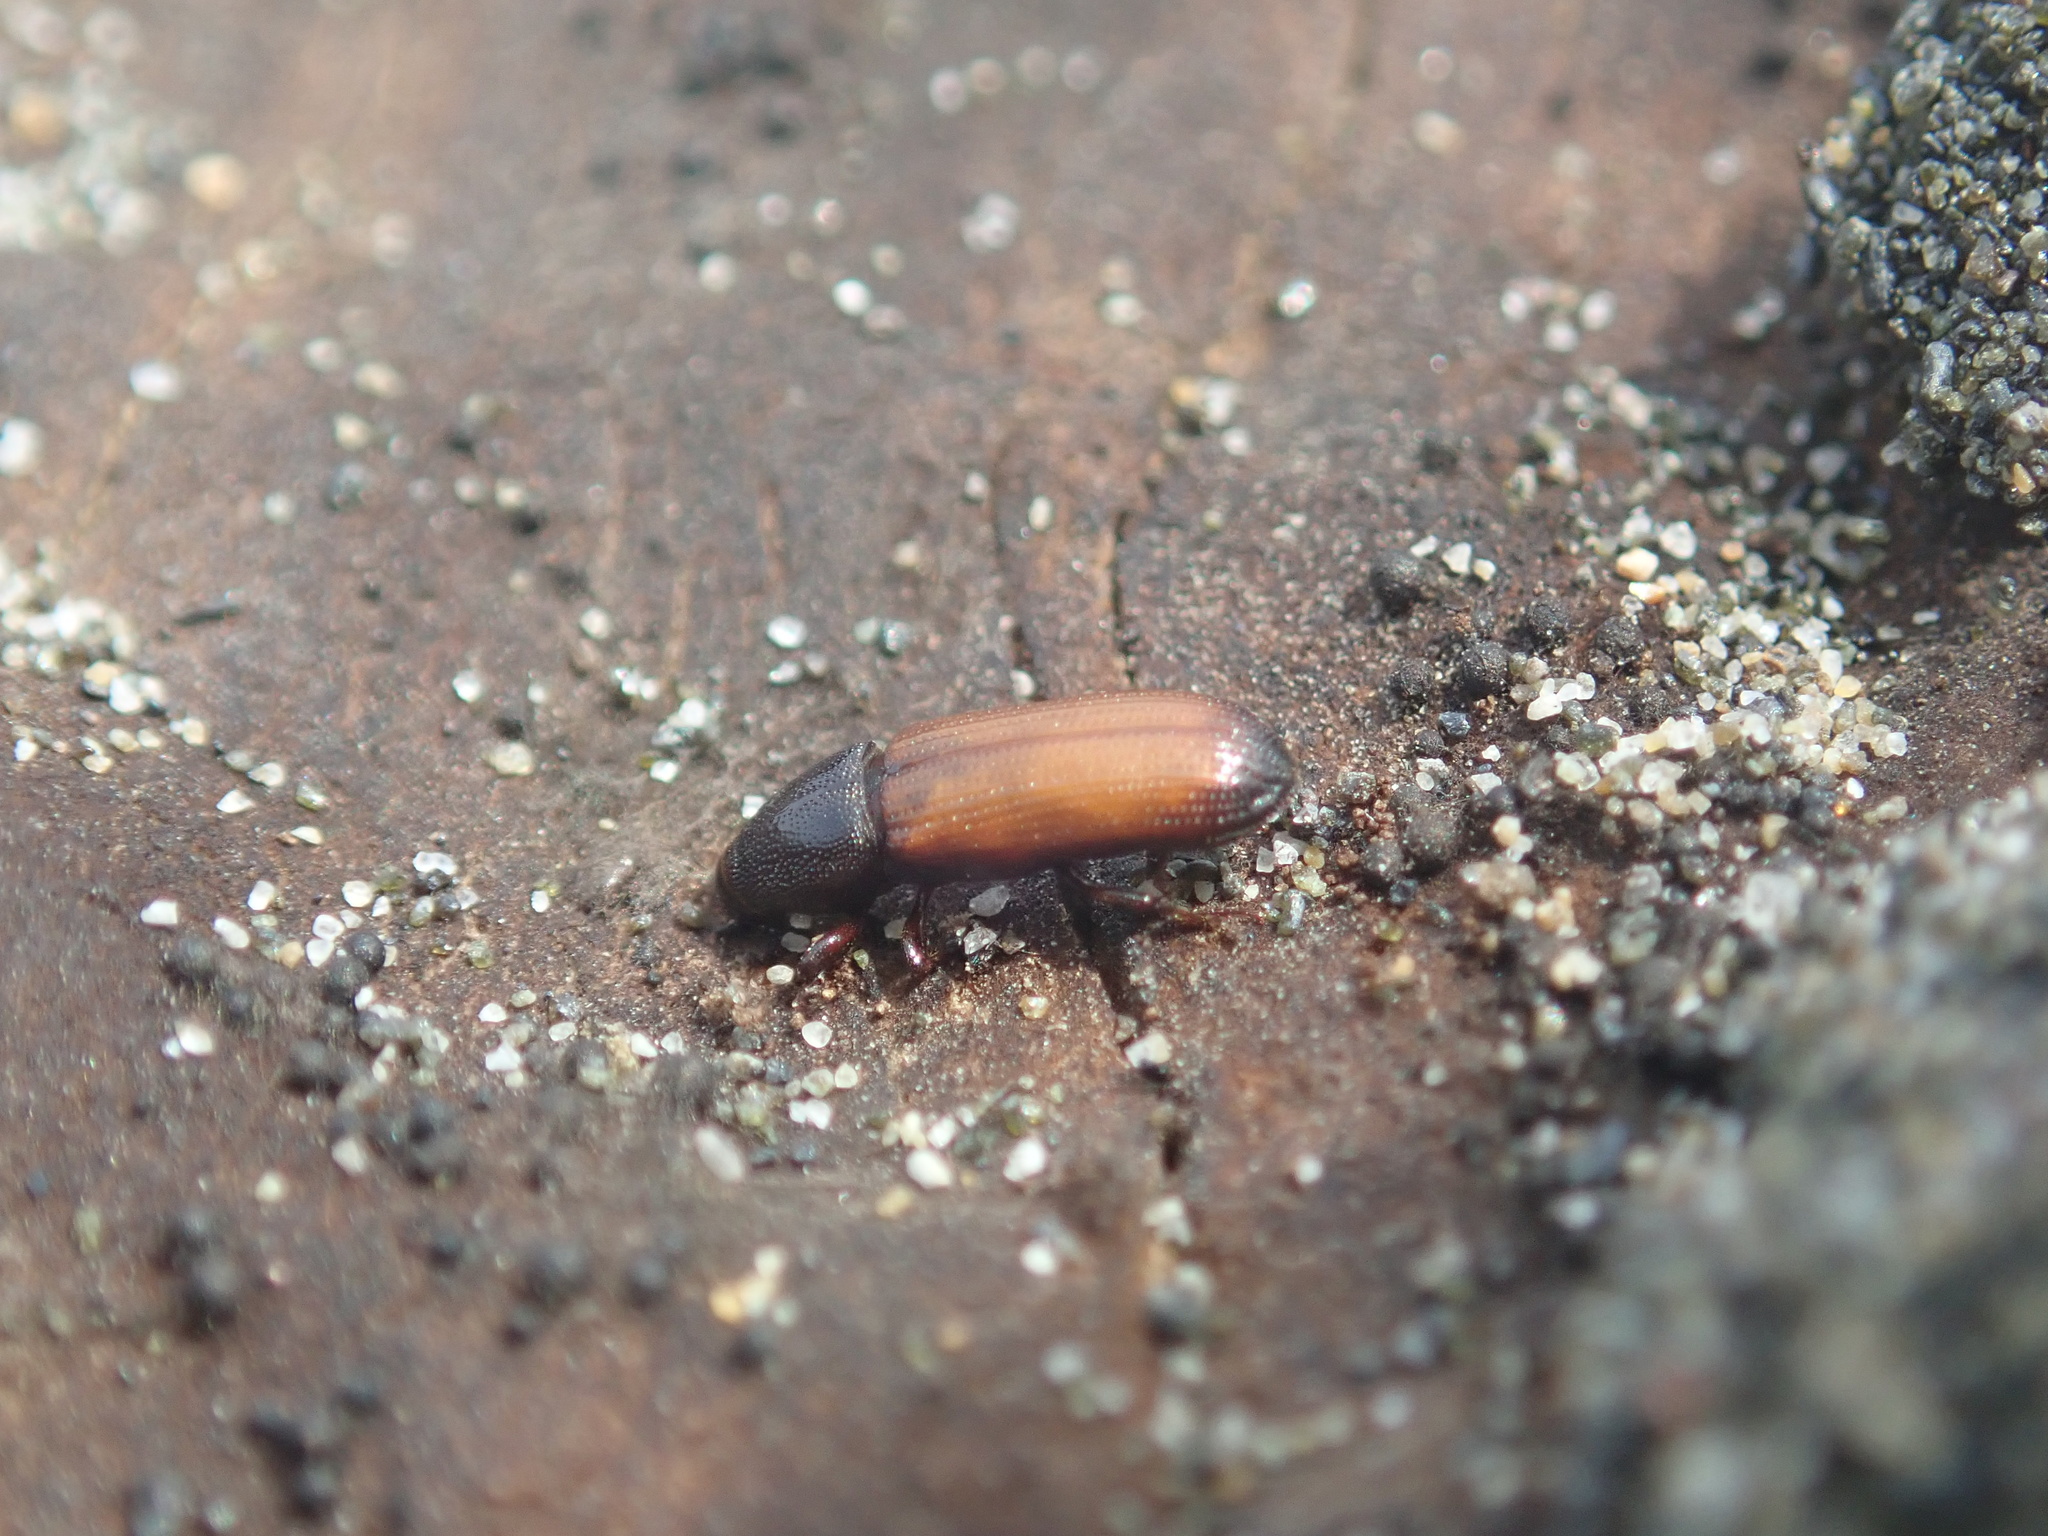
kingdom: Animalia
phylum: Arthropoda
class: Insecta
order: Coleoptera
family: Curculionidae
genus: Mesites
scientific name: Mesites pallidipennis
